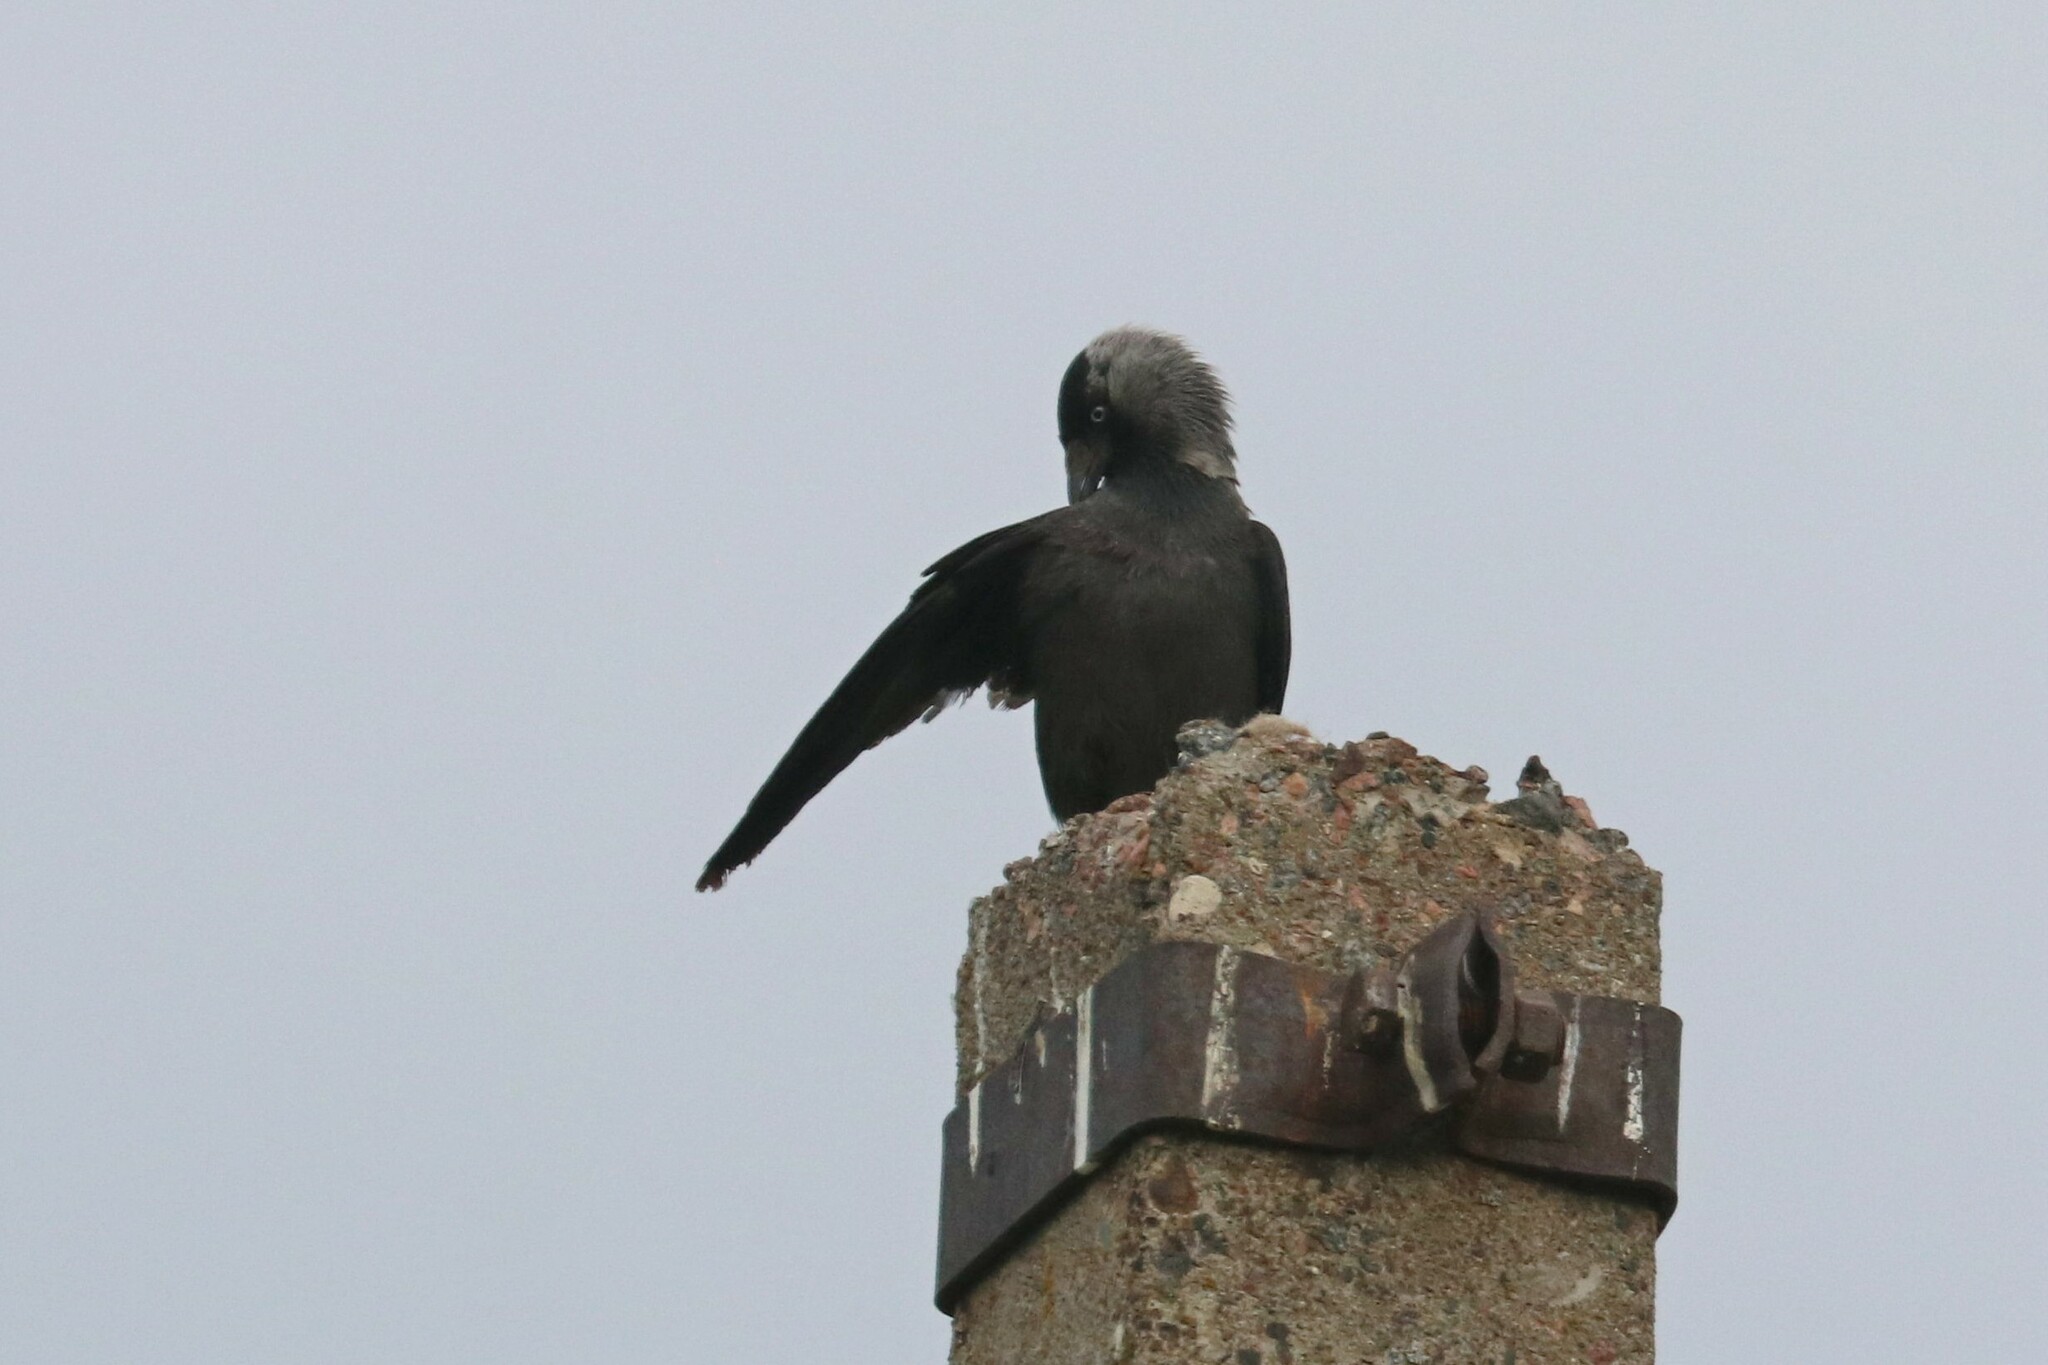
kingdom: Animalia
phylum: Chordata
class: Aves
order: Passeriformes
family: Corvidae
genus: Coloeus
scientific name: Coloeus monedula
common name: Western jackdaw
